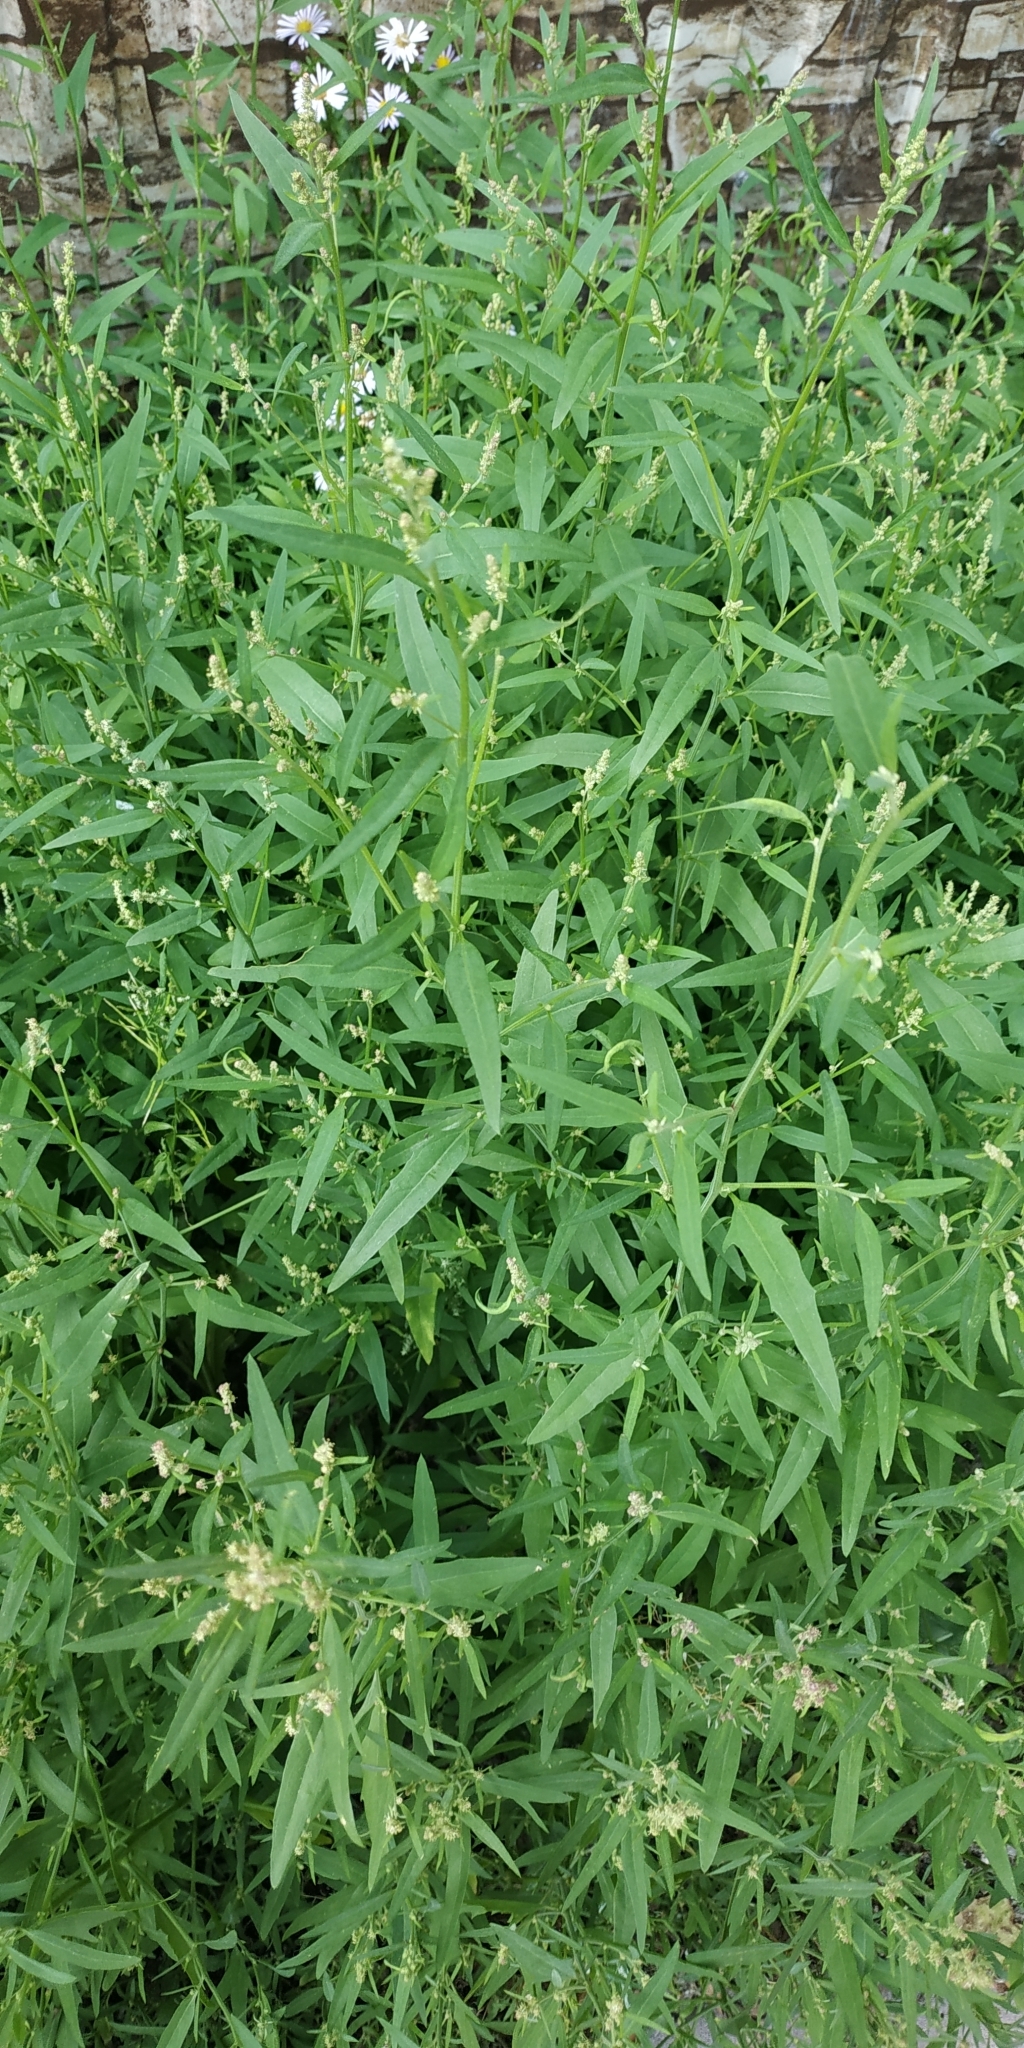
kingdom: Plantae
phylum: Tracheophyta
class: Magnoliopsida
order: Caryophyllales
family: Amaranthaceae
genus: Atriplex
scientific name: Atriplex patula
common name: Common orache
